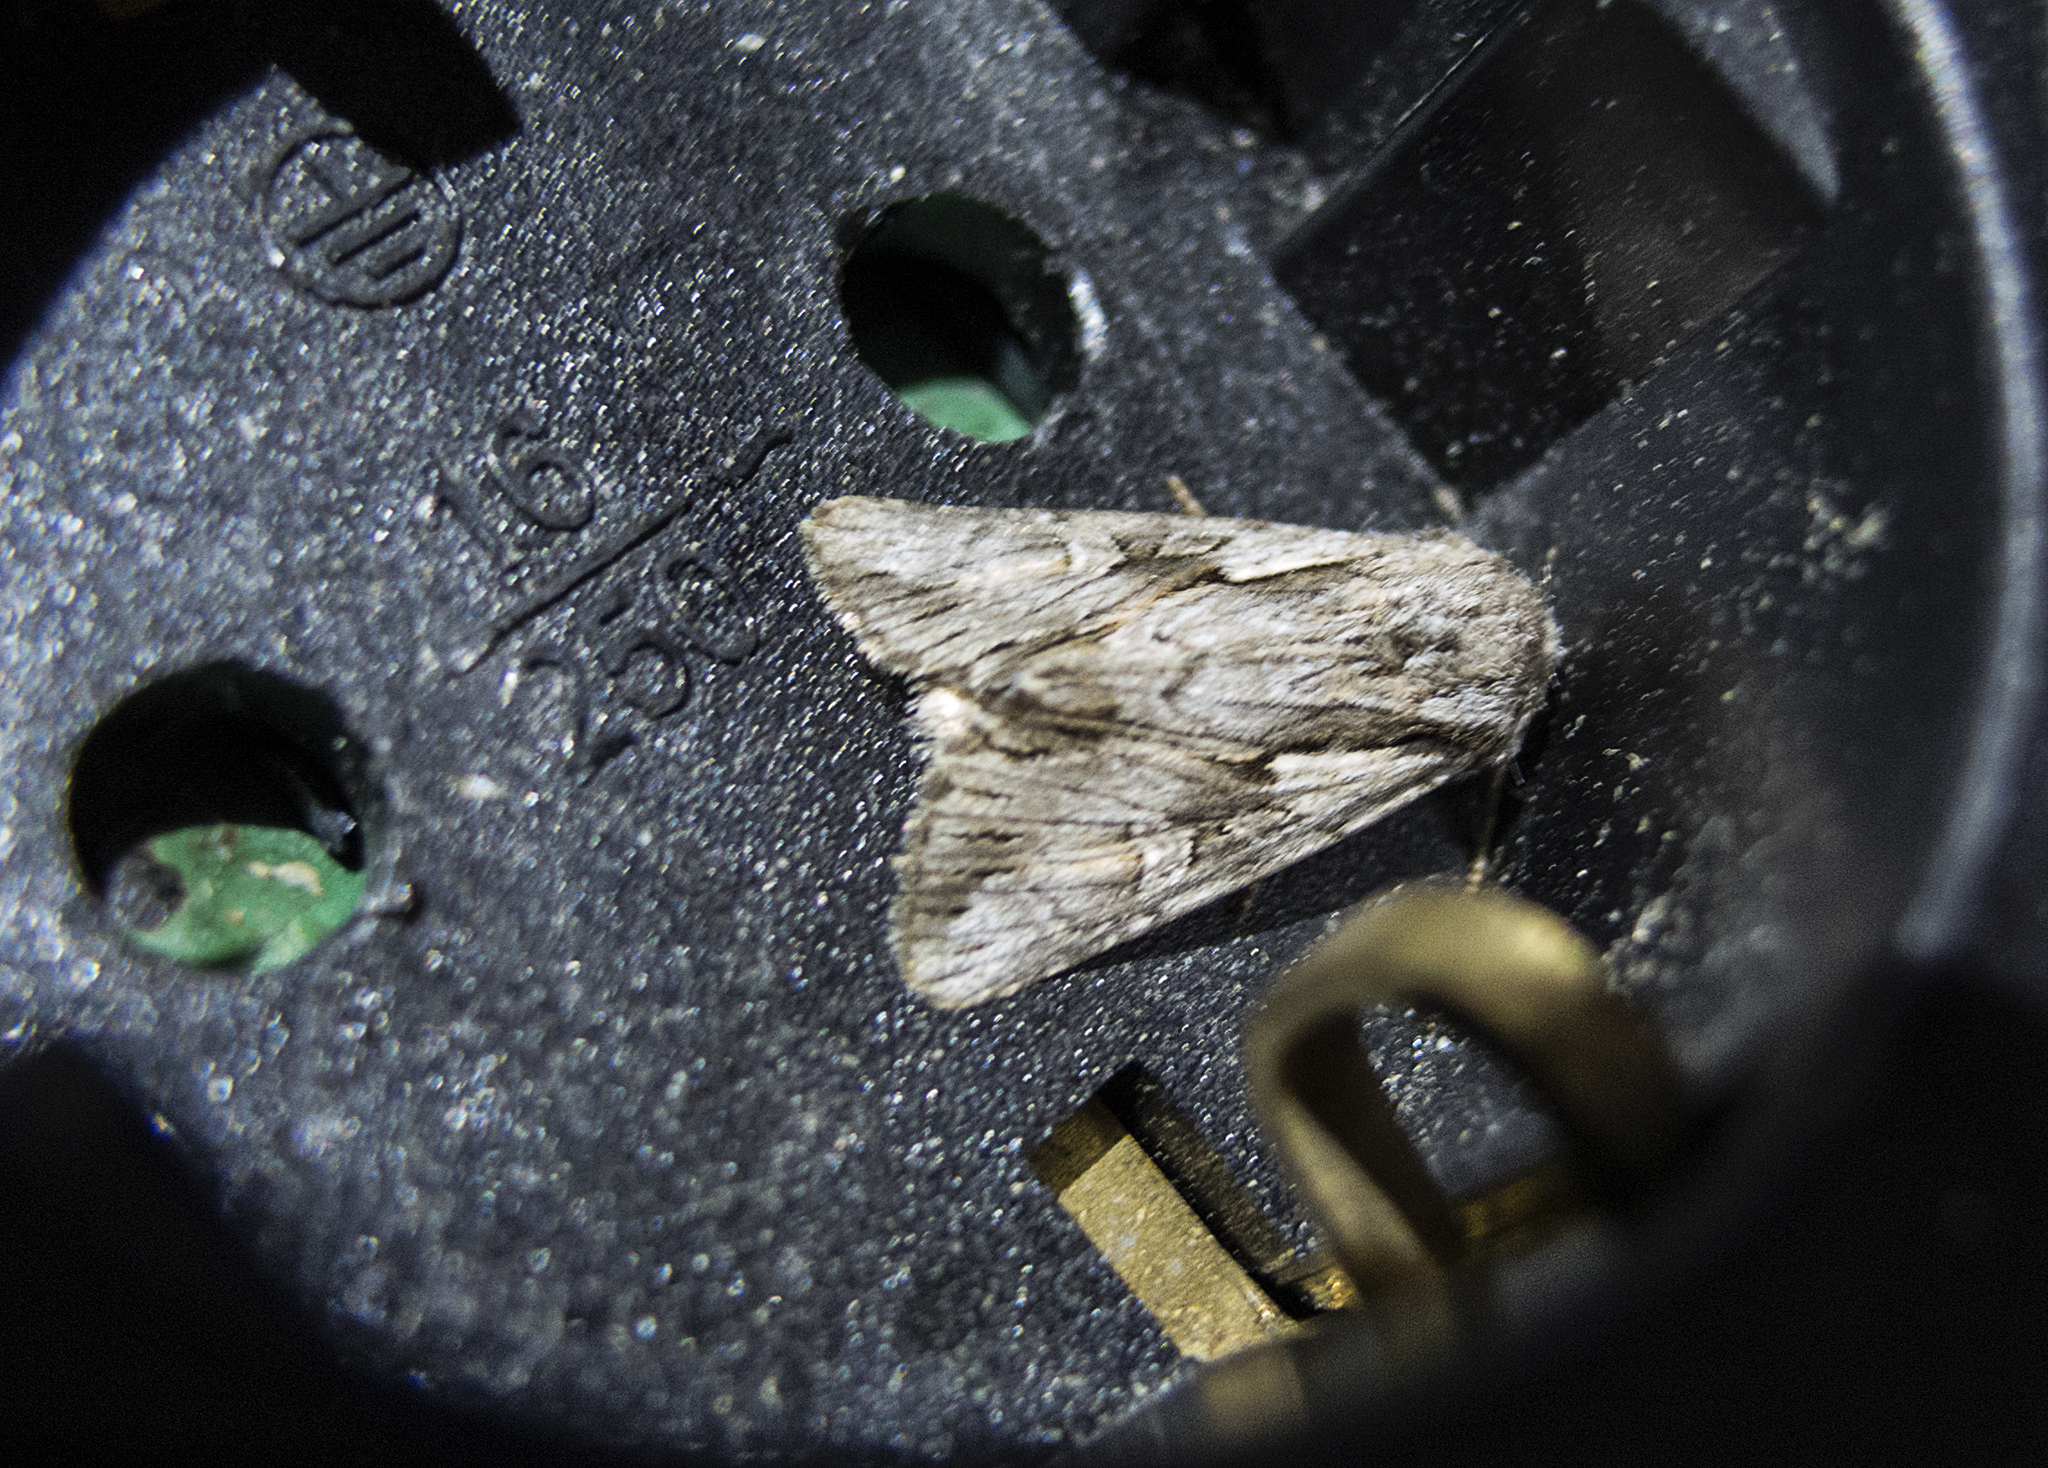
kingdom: Animalia
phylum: Arthropoda
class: Insecta
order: Lepidoptera
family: Noctuidae
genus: Chloantha
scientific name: Chloantha hyperici
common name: Pale-shouldered cloud
